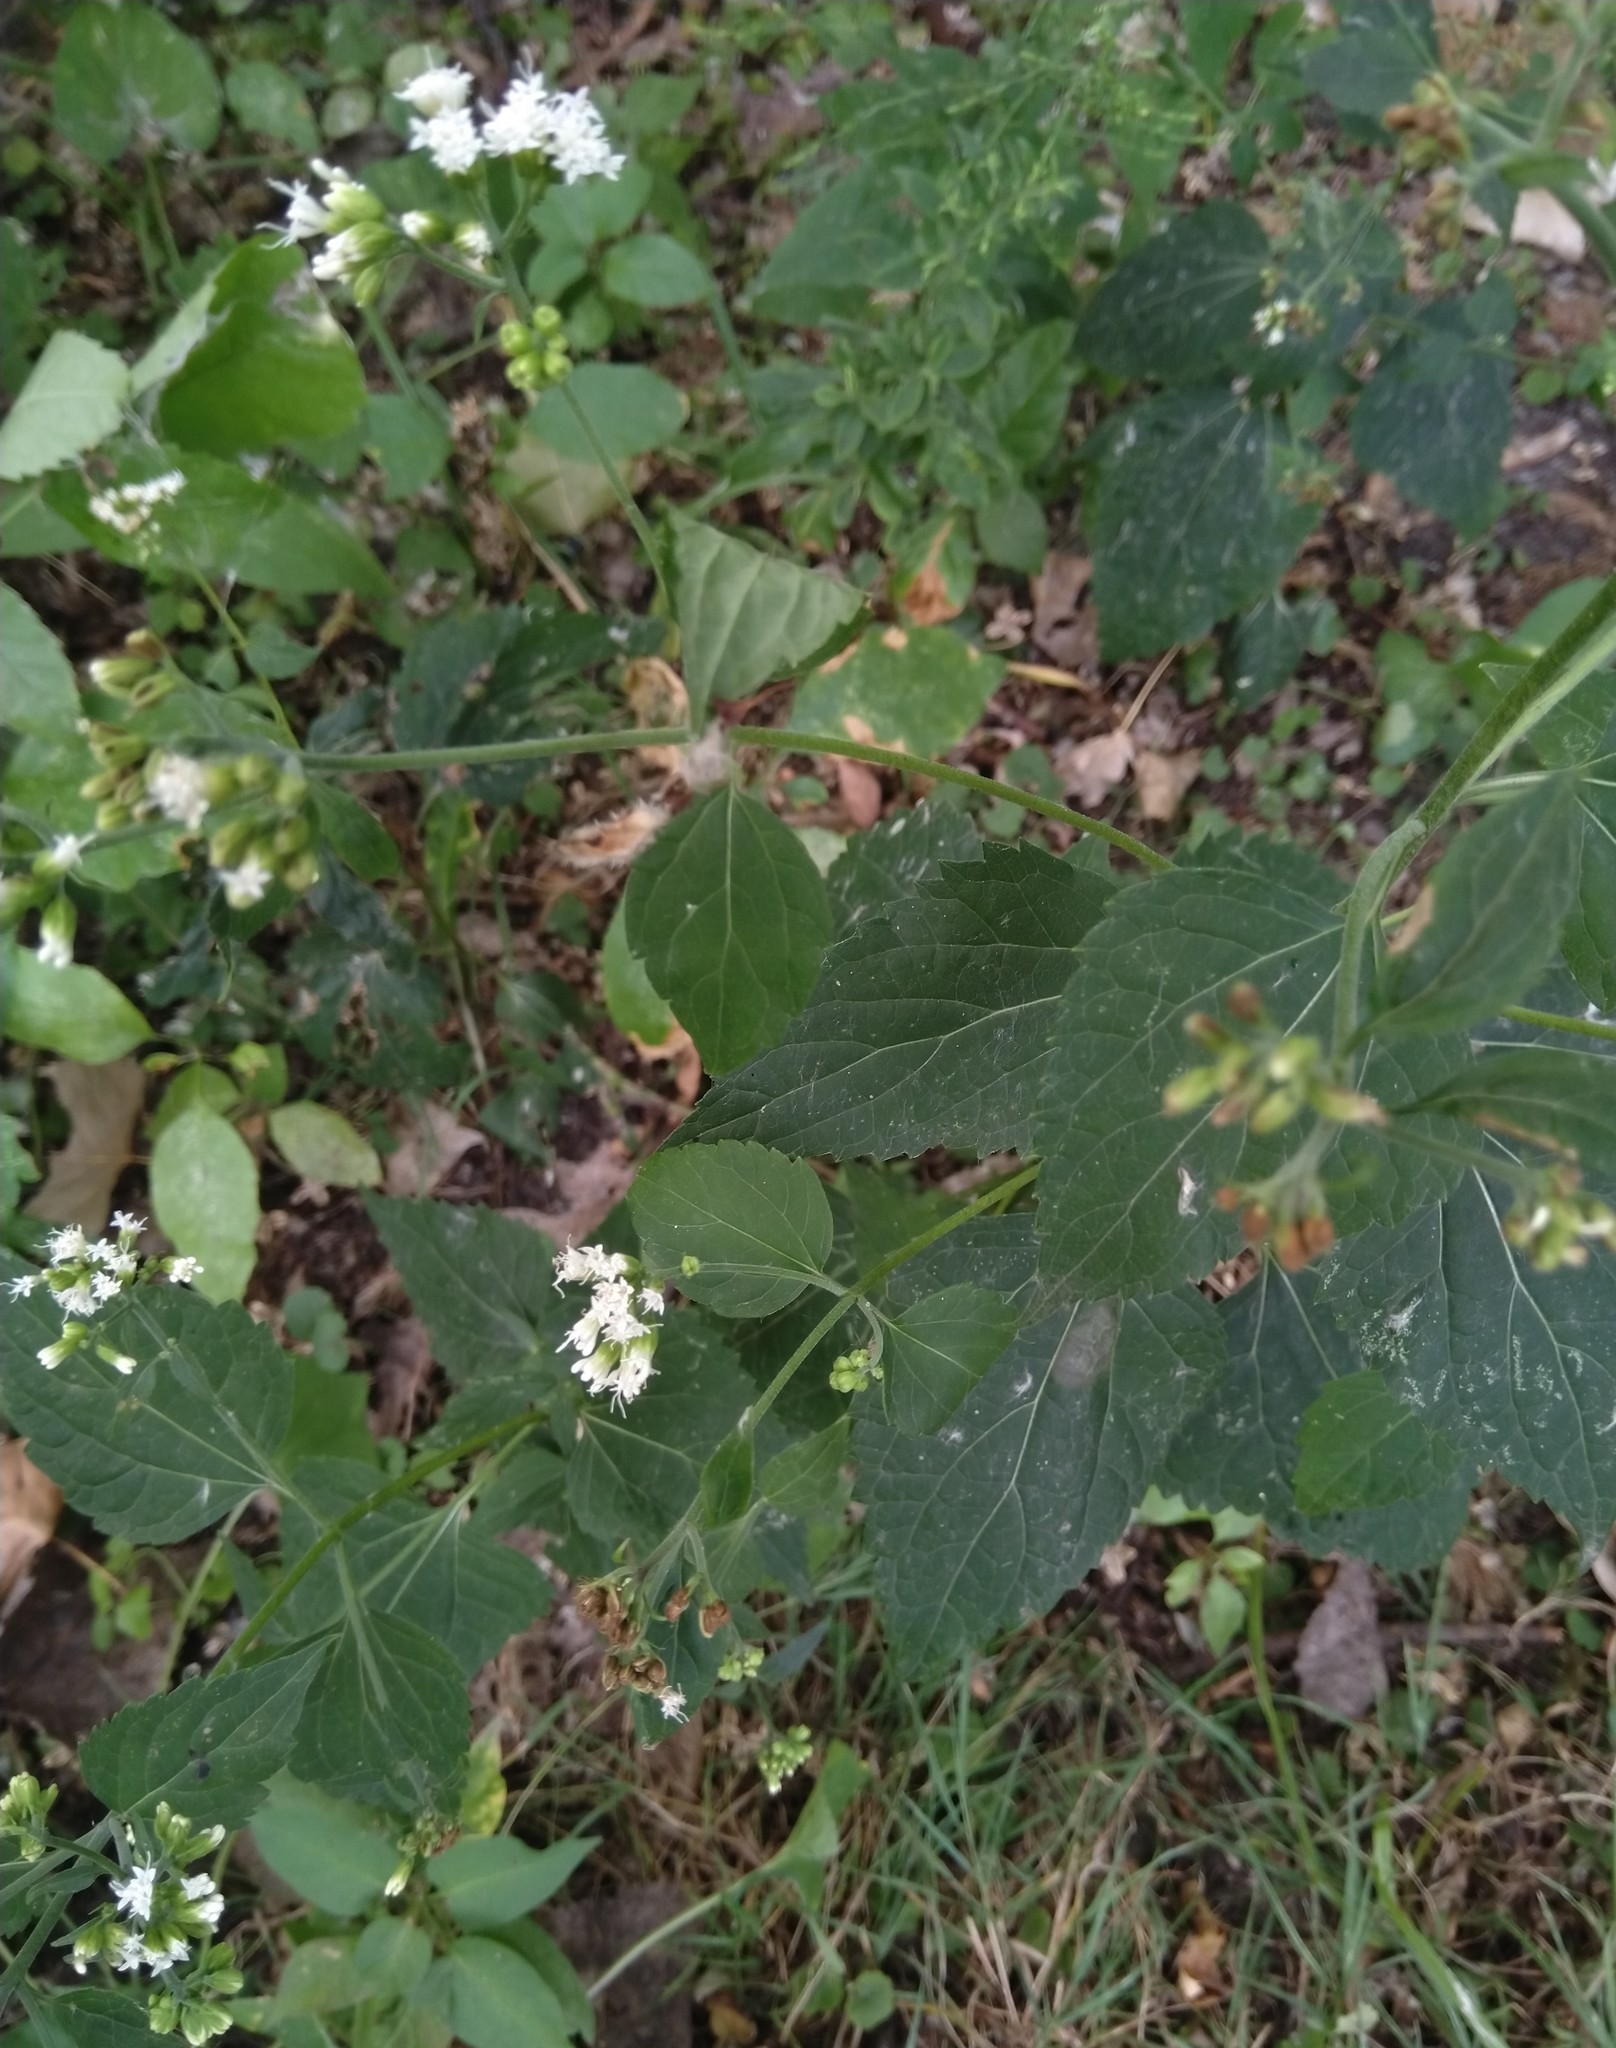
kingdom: Plantae
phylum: Tracheophyta
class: Magnoliopsida
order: Asterales
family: Asteraceae
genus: Ageratina
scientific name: Ageratina altissima
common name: White snakeroot
